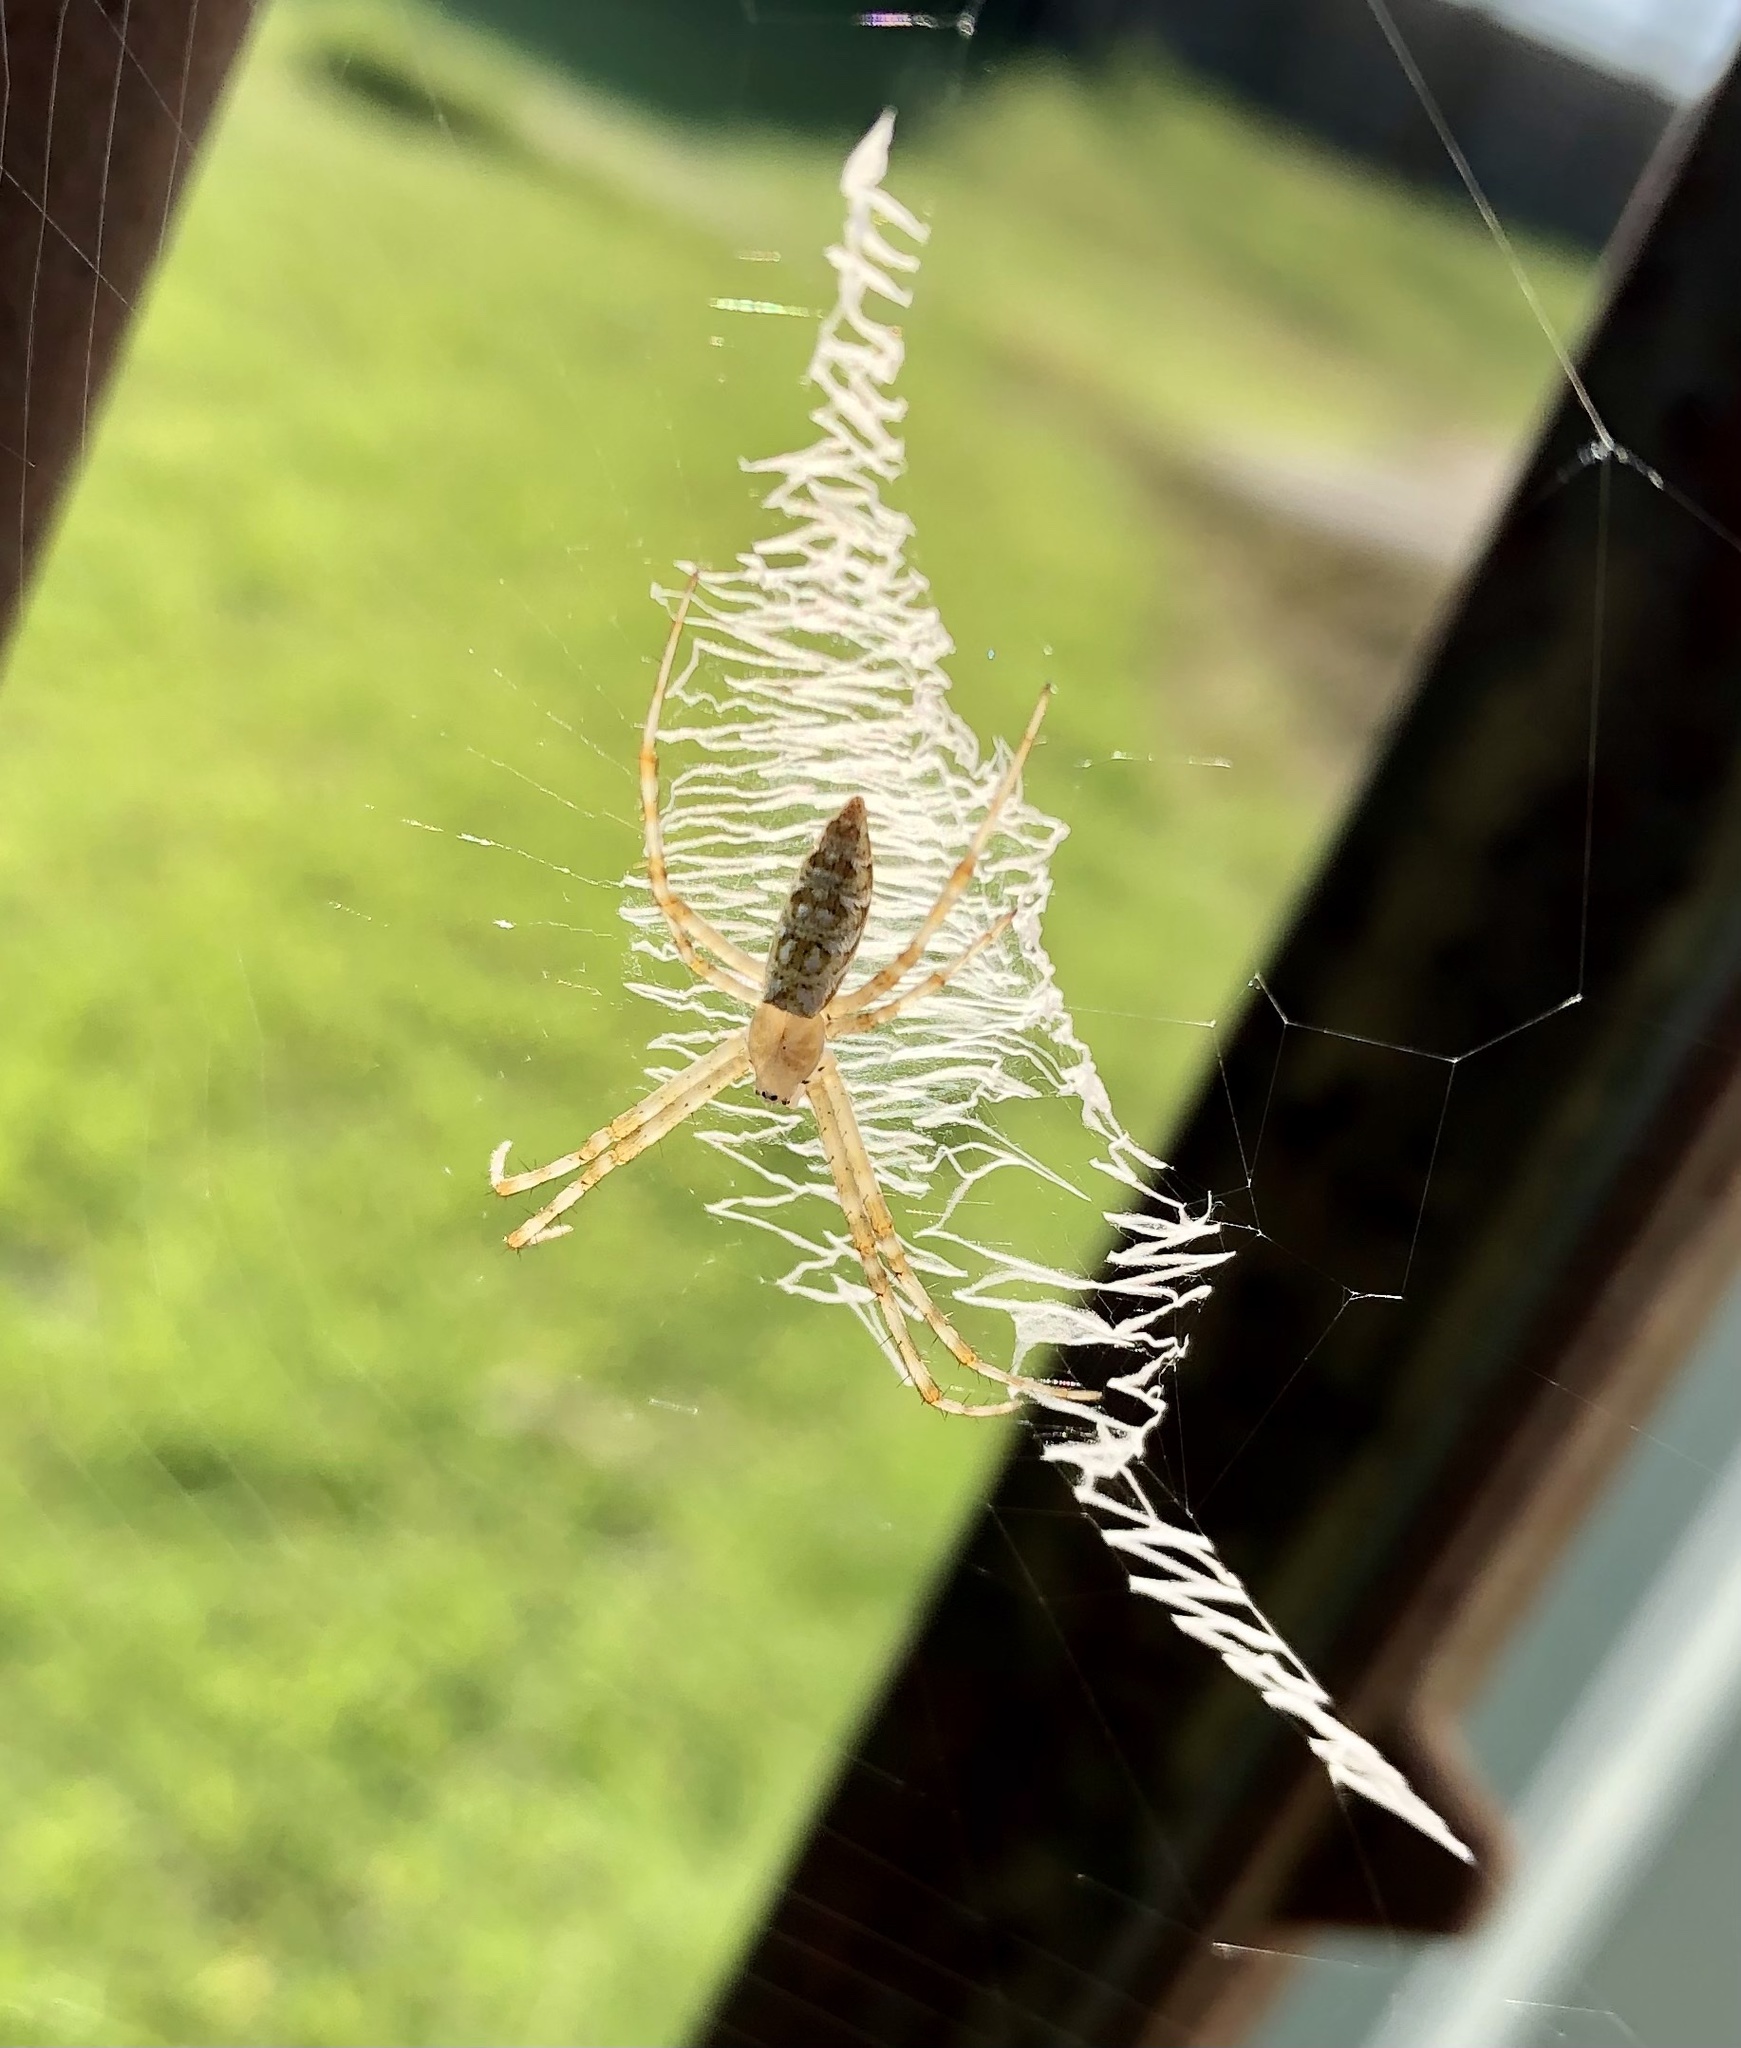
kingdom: Animalia
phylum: Arthropoda
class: Arachnida
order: Araneae
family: Araneidae
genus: Argiope
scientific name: Argiope aurantia
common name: Orb weavers
